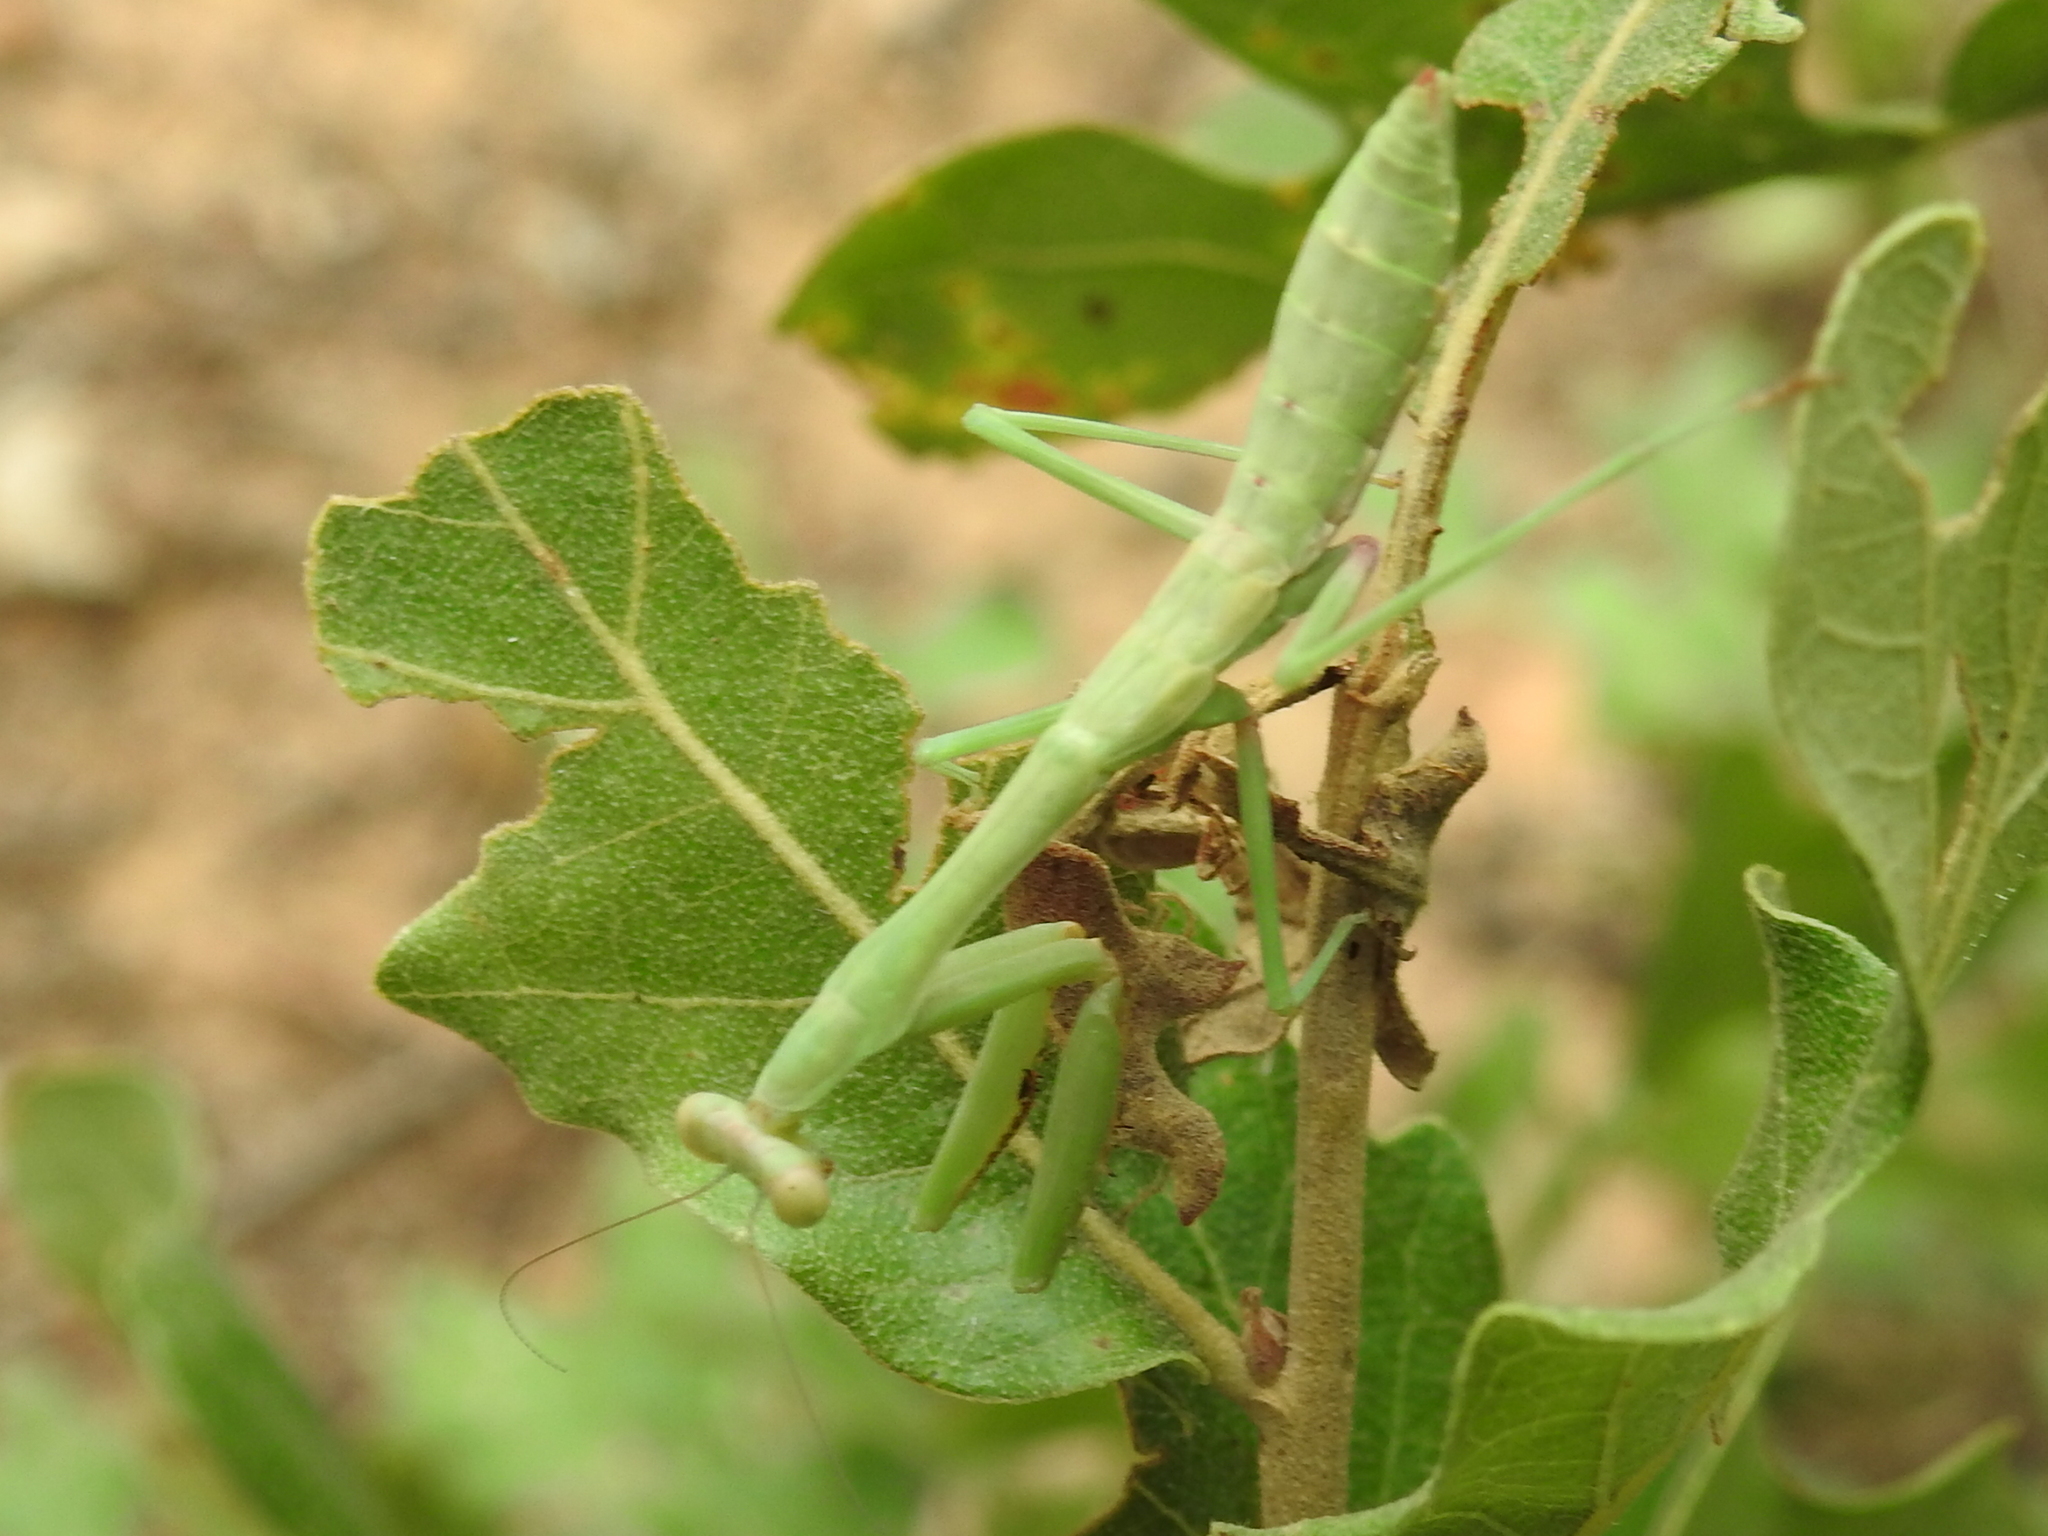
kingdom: Animalia
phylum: Arthropoda
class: Insecta
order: Mantodea
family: Mantidae
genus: Stagmomantis
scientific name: Stagmomantis carolina
